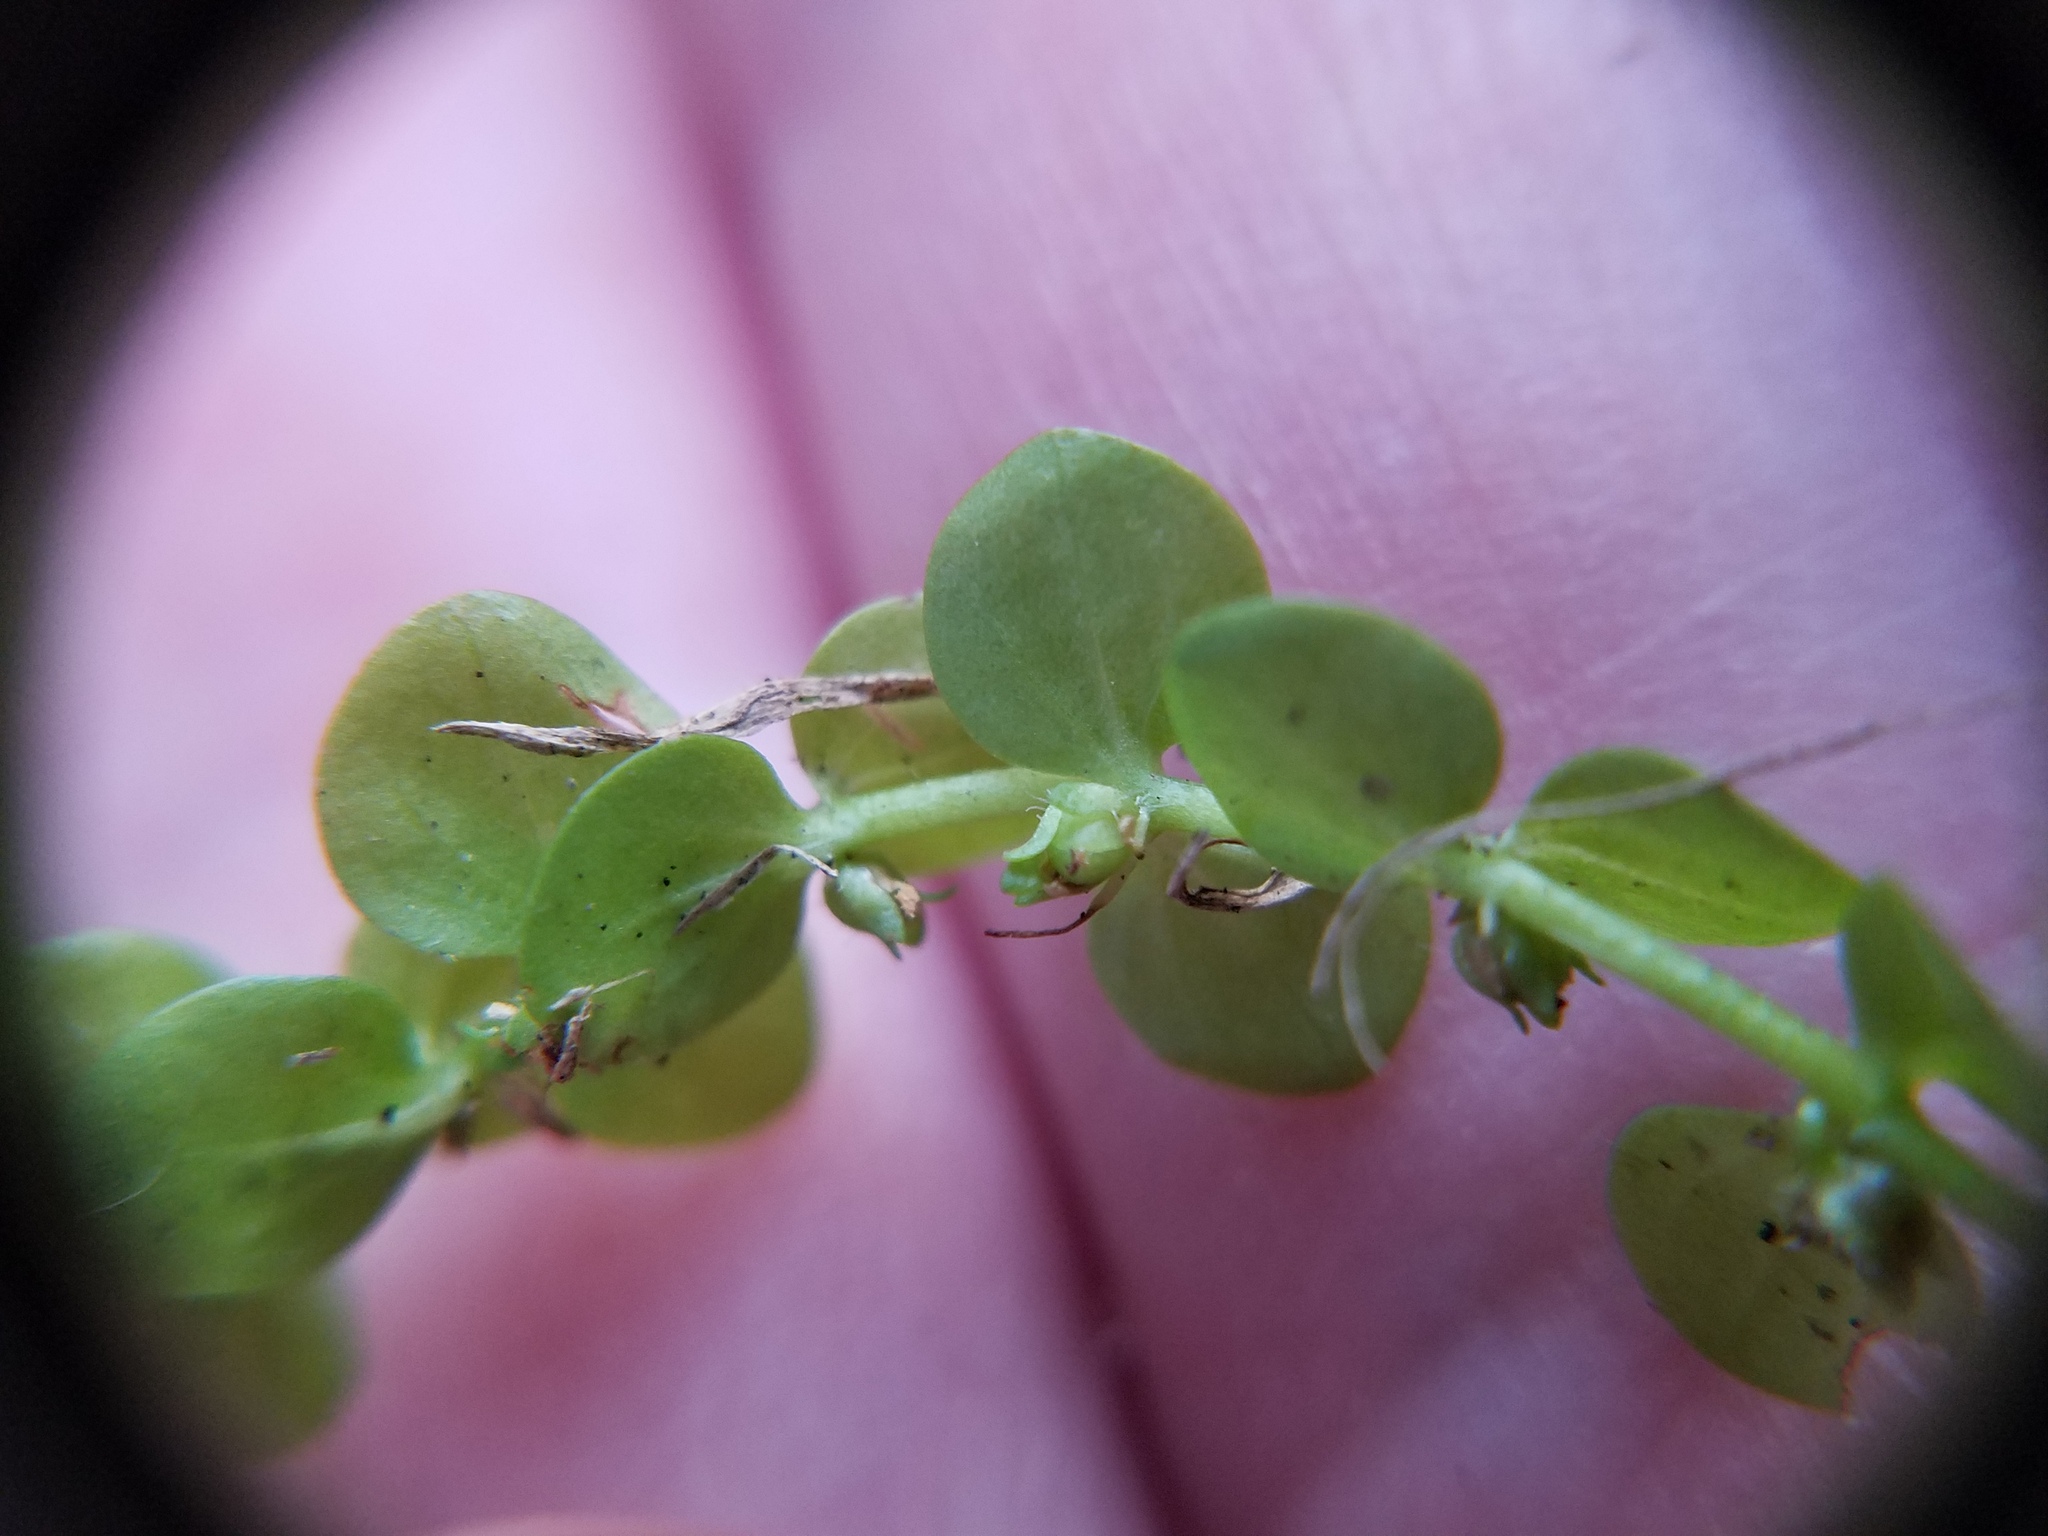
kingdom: Plantae
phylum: Tracheophyta
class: Magnoliopsida
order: Lamiales
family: Linderniaceae
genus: Micranthemum
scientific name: Micranthemum umbrosum
